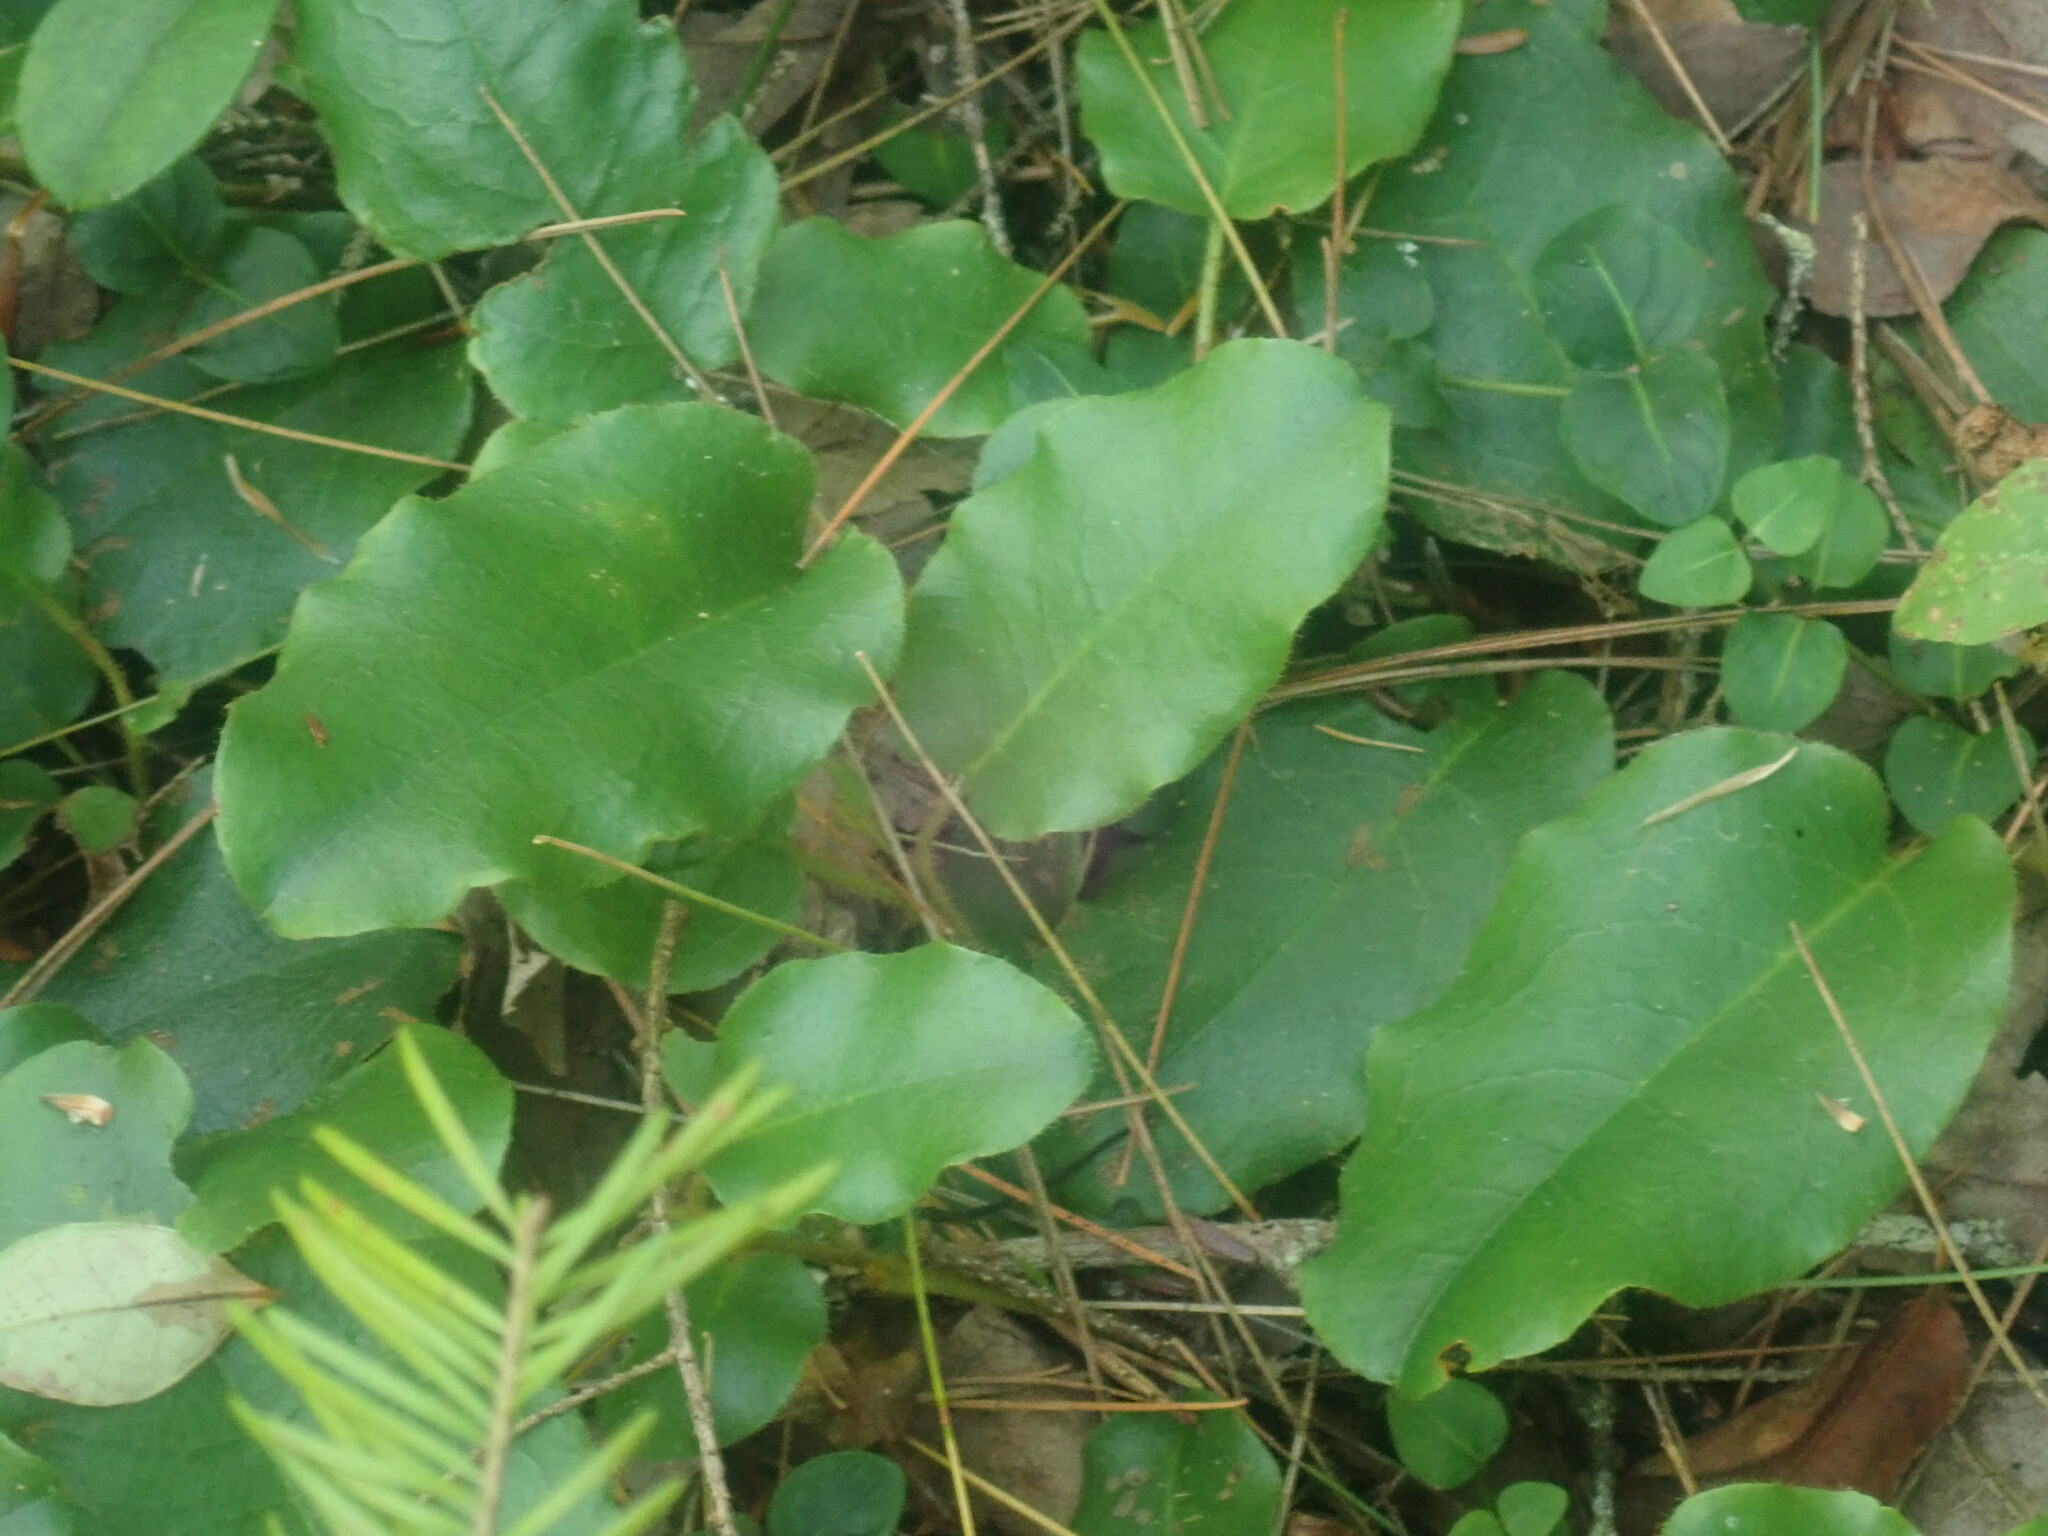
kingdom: Plantae
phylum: Tracheophyta
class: Magnoliopsida
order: Ericales
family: Ericaceae
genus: Epigaea
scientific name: Epigaea repens
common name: Gravelroot
